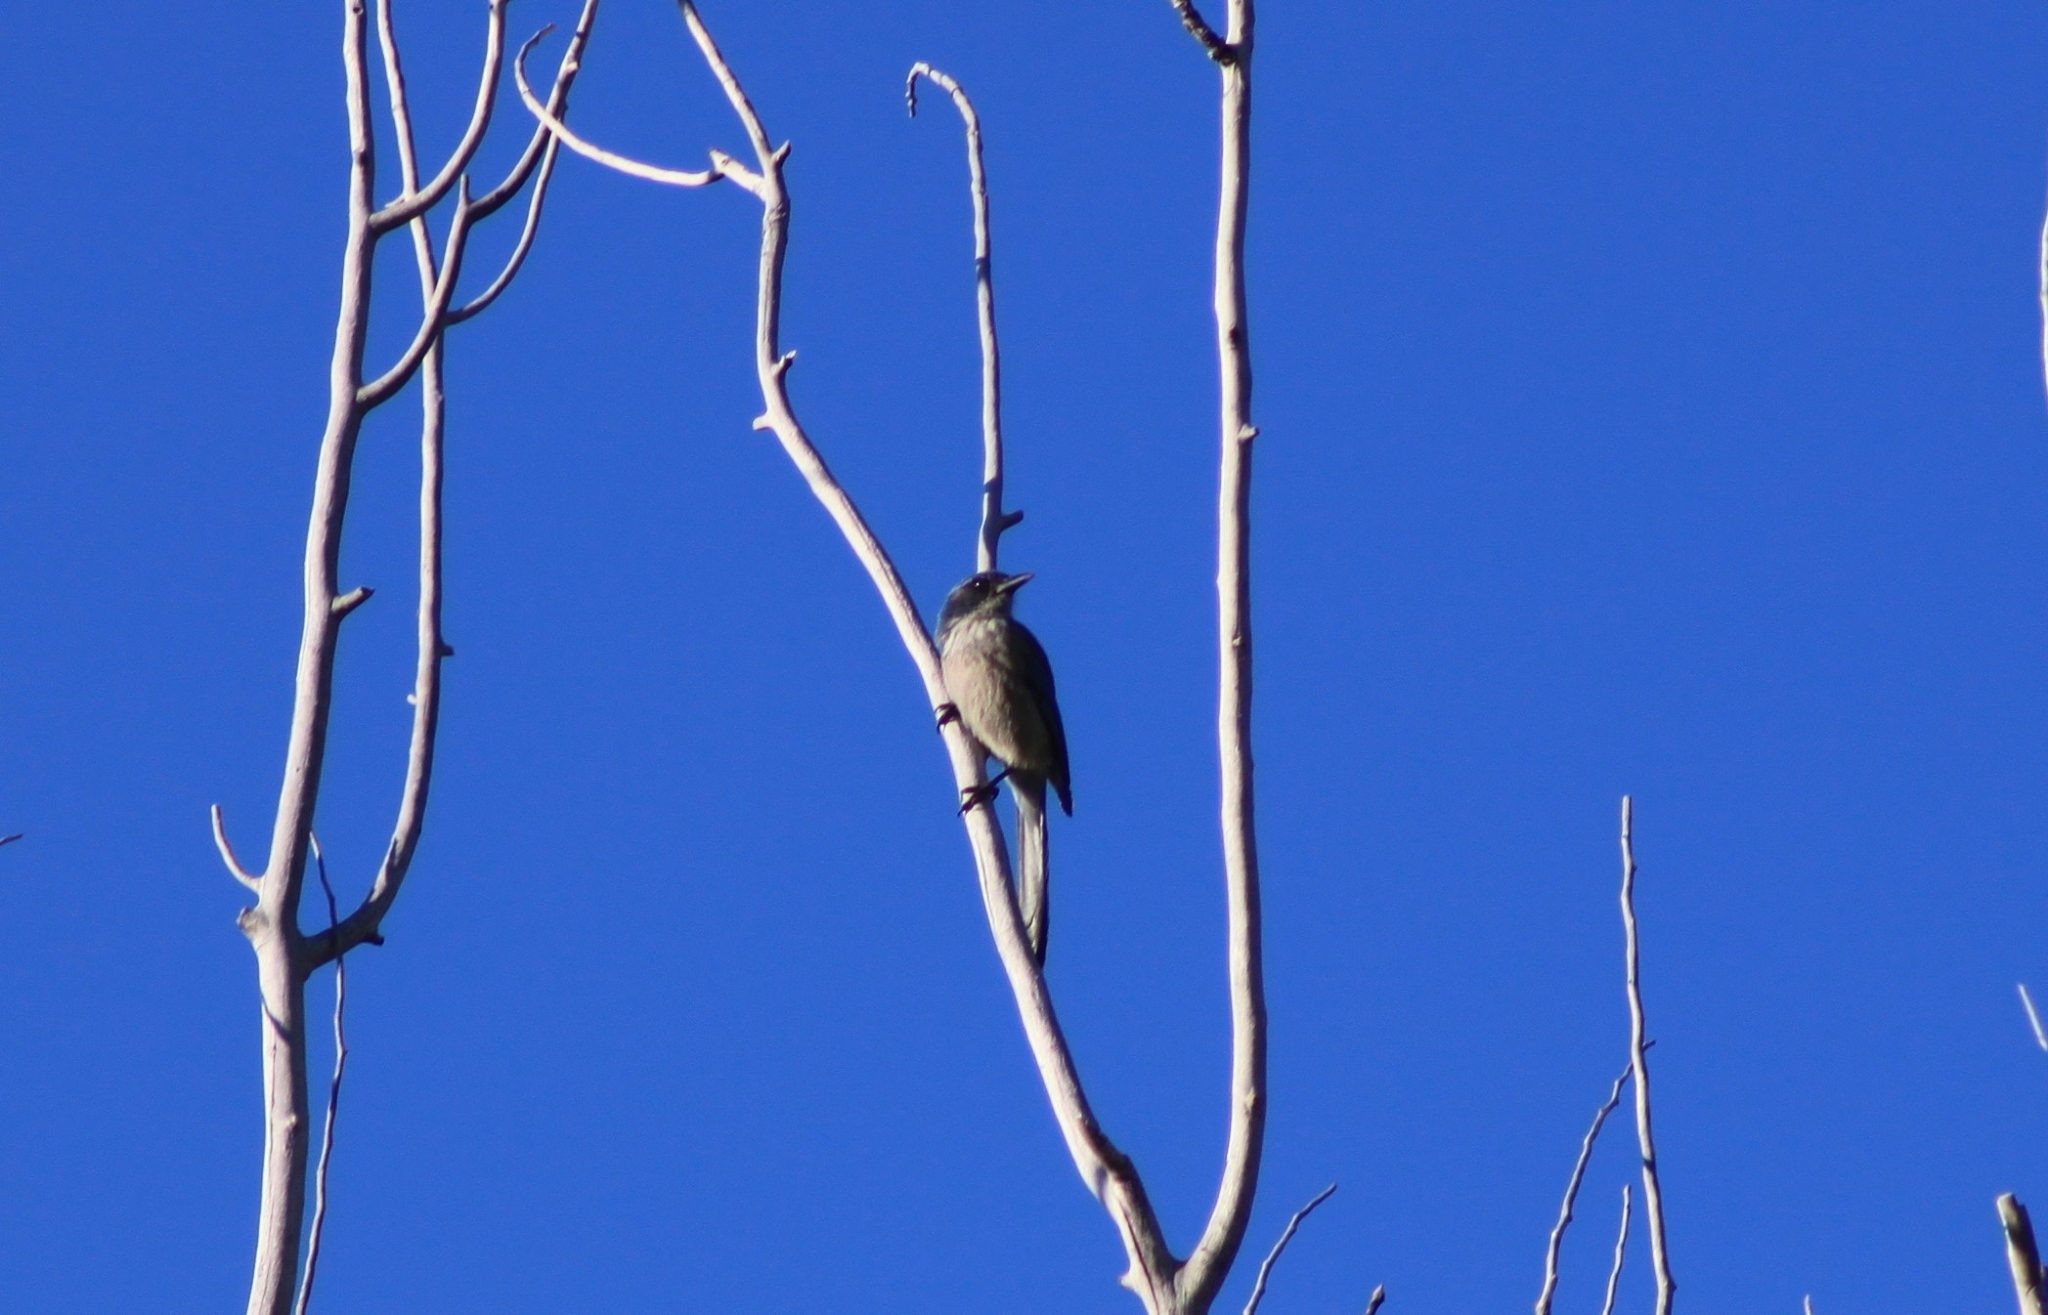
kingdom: Animalia
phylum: Chordata
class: Aves
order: Passeriformes
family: Corvidae
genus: Aphelocoma
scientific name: Aphelocoma woodhouseii
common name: Woodhouse's scrub-jay
